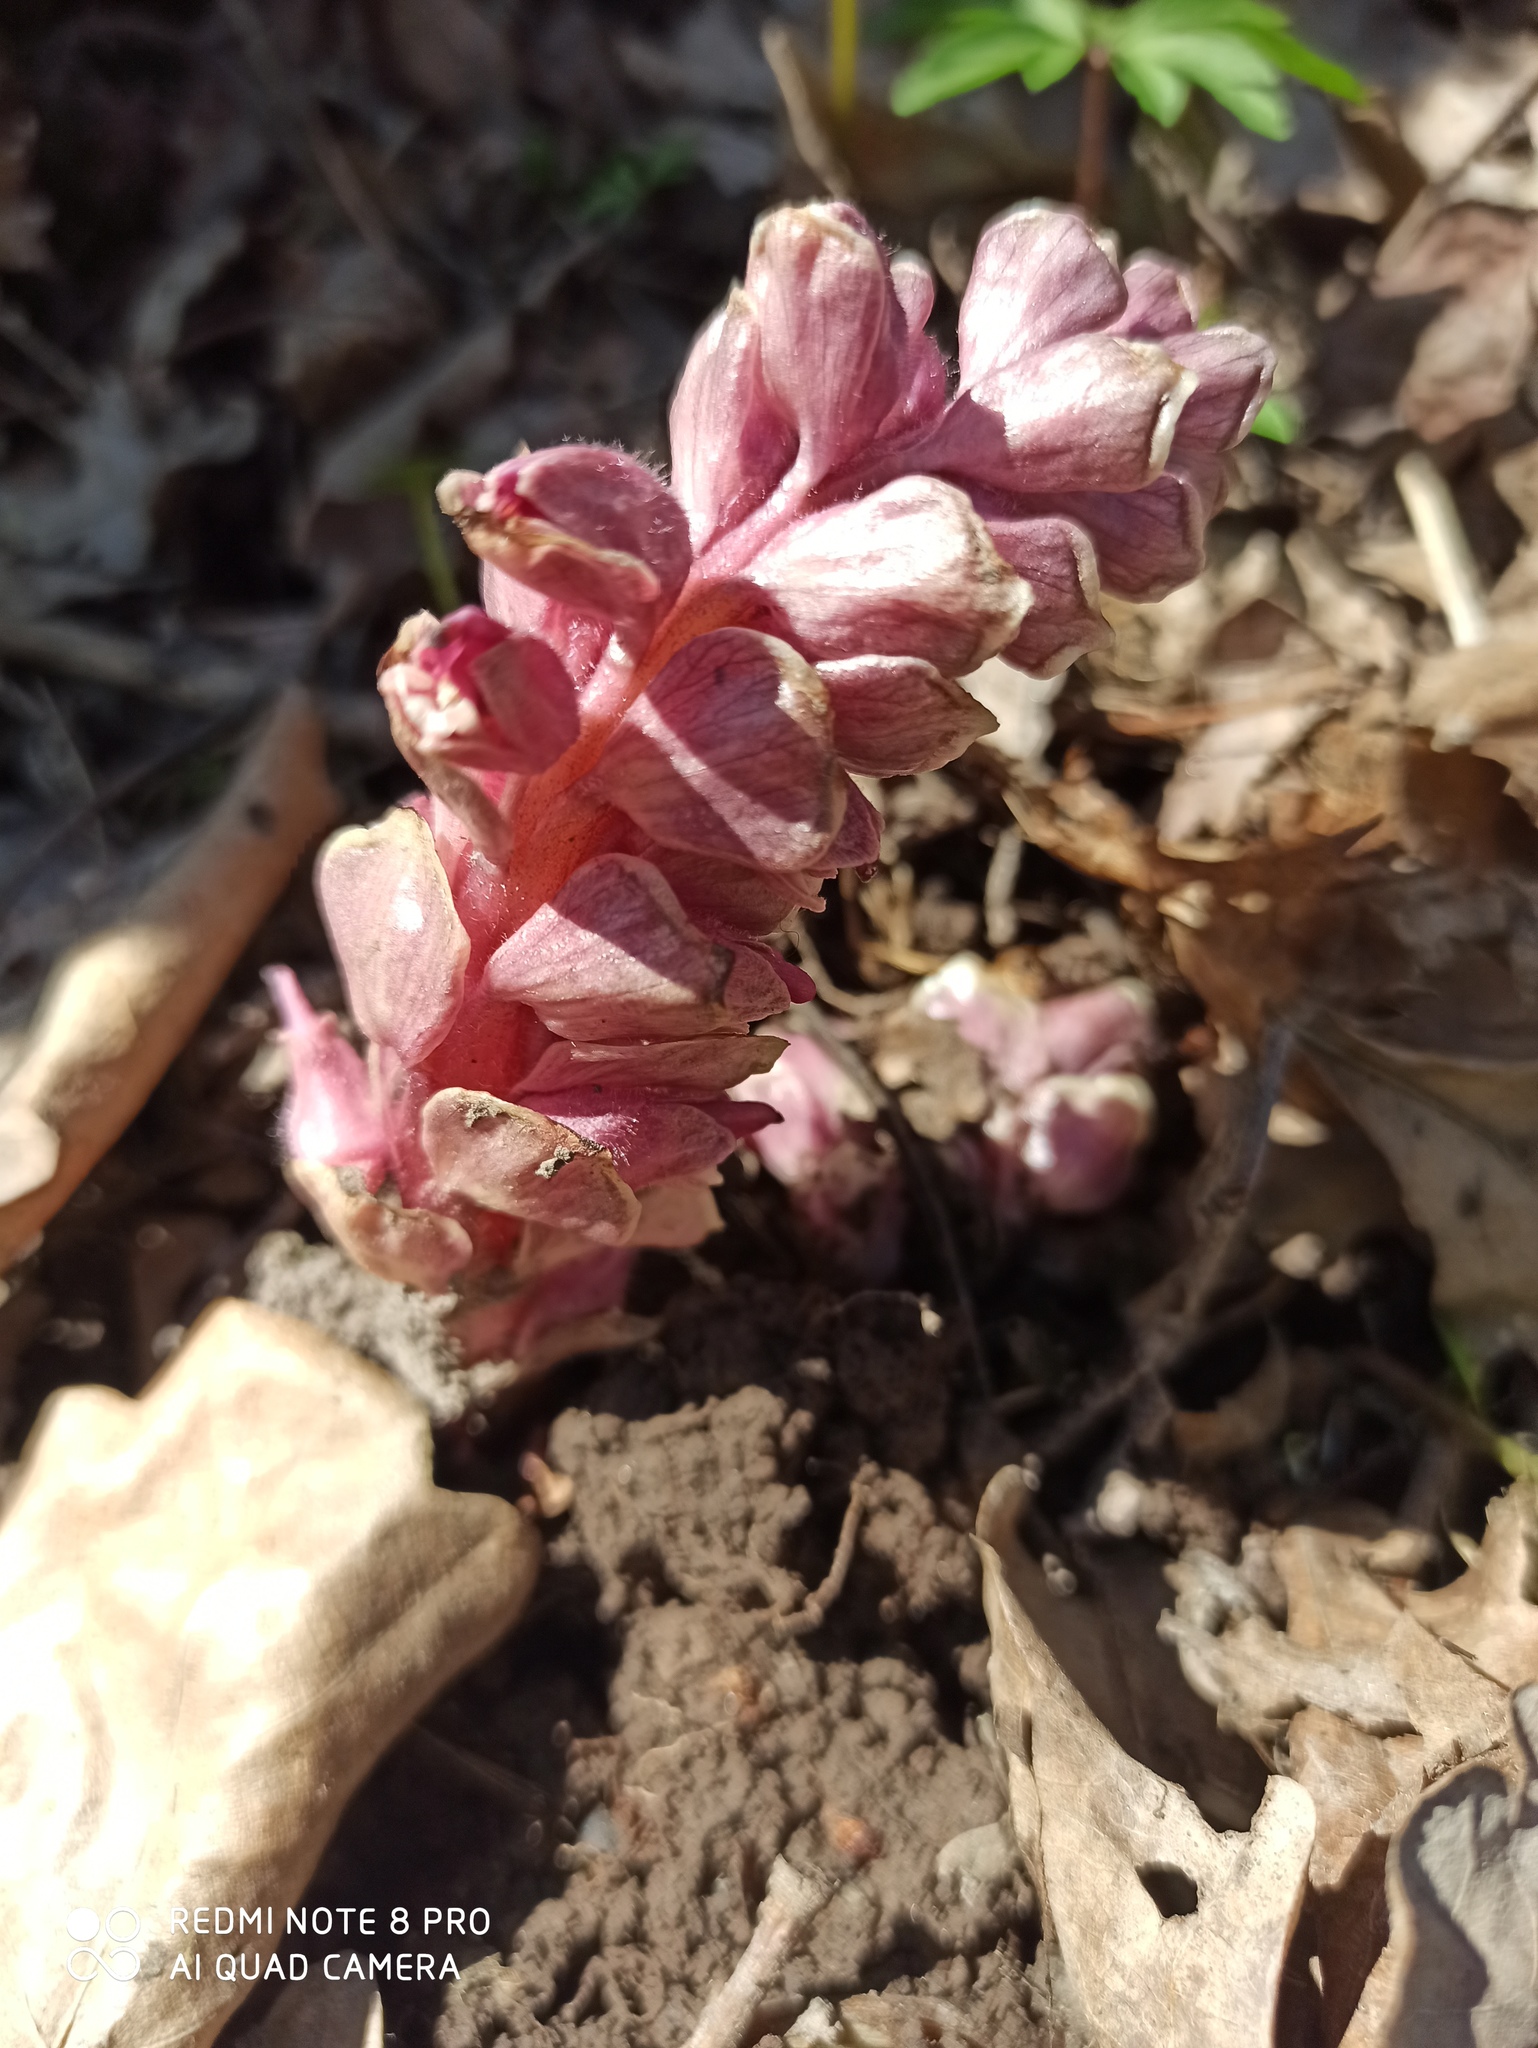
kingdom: Plantae
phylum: Tracheophyta
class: Magnoliopsida
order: Lamiales
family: Orobanchaceae
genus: Lathraea
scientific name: Lathraea squamaria
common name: Toothwort
